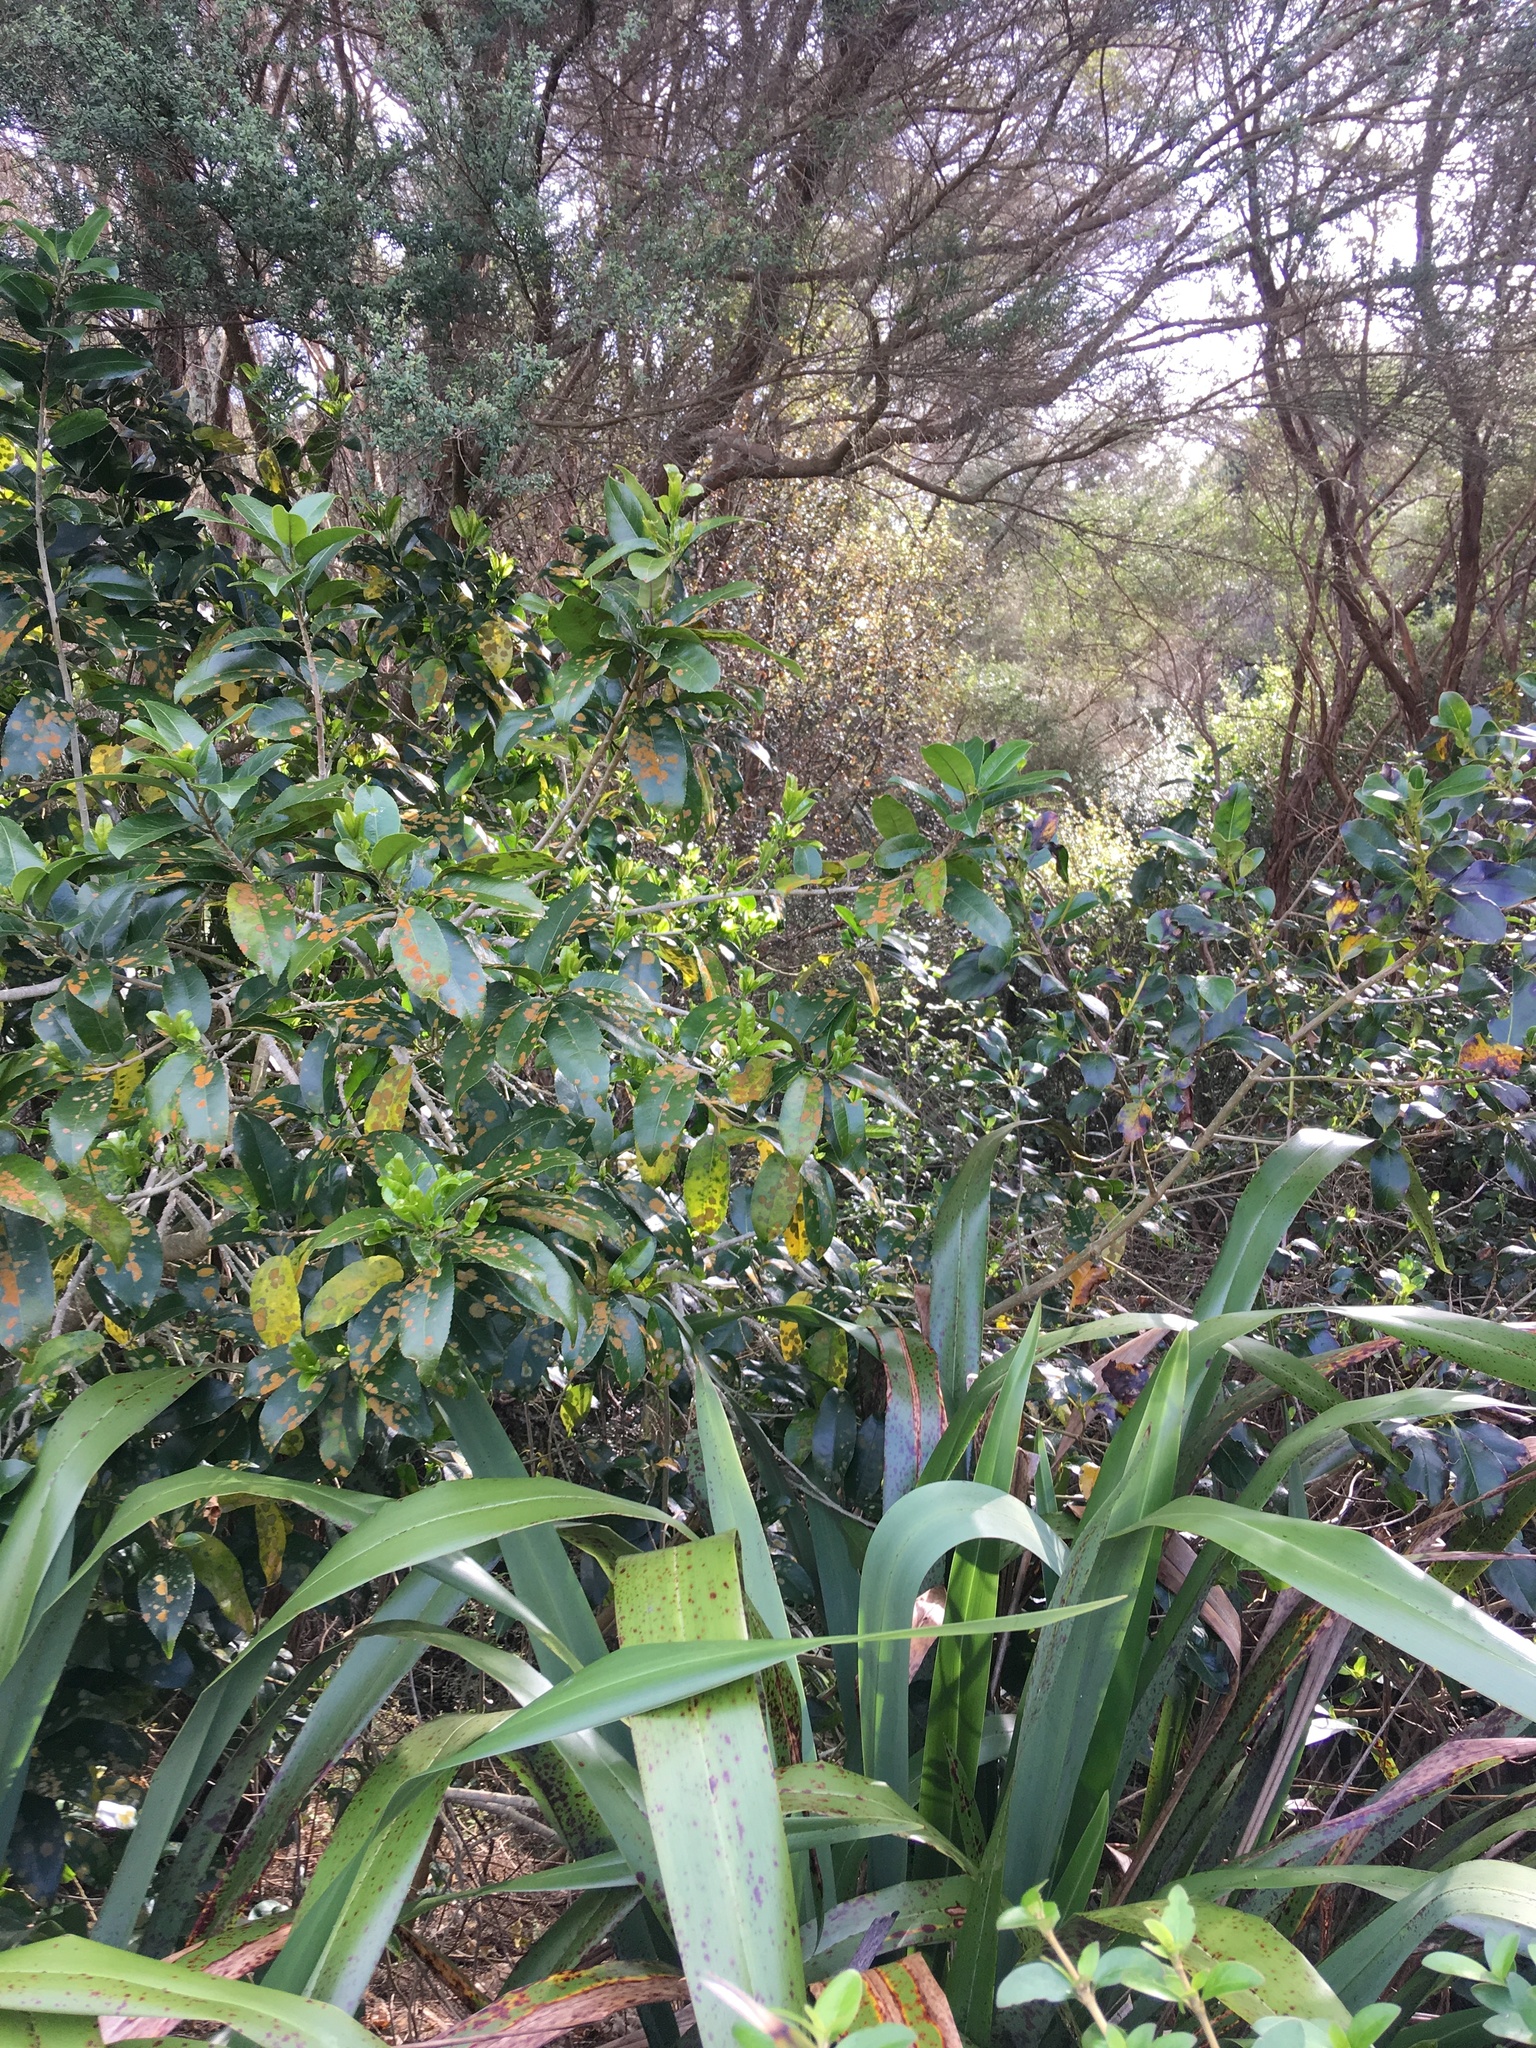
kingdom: Plantae
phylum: Tracheophyta
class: Magnoliopsida
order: Gentianales
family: Rubiaceae
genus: Coprosma
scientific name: Coprosma robusta
